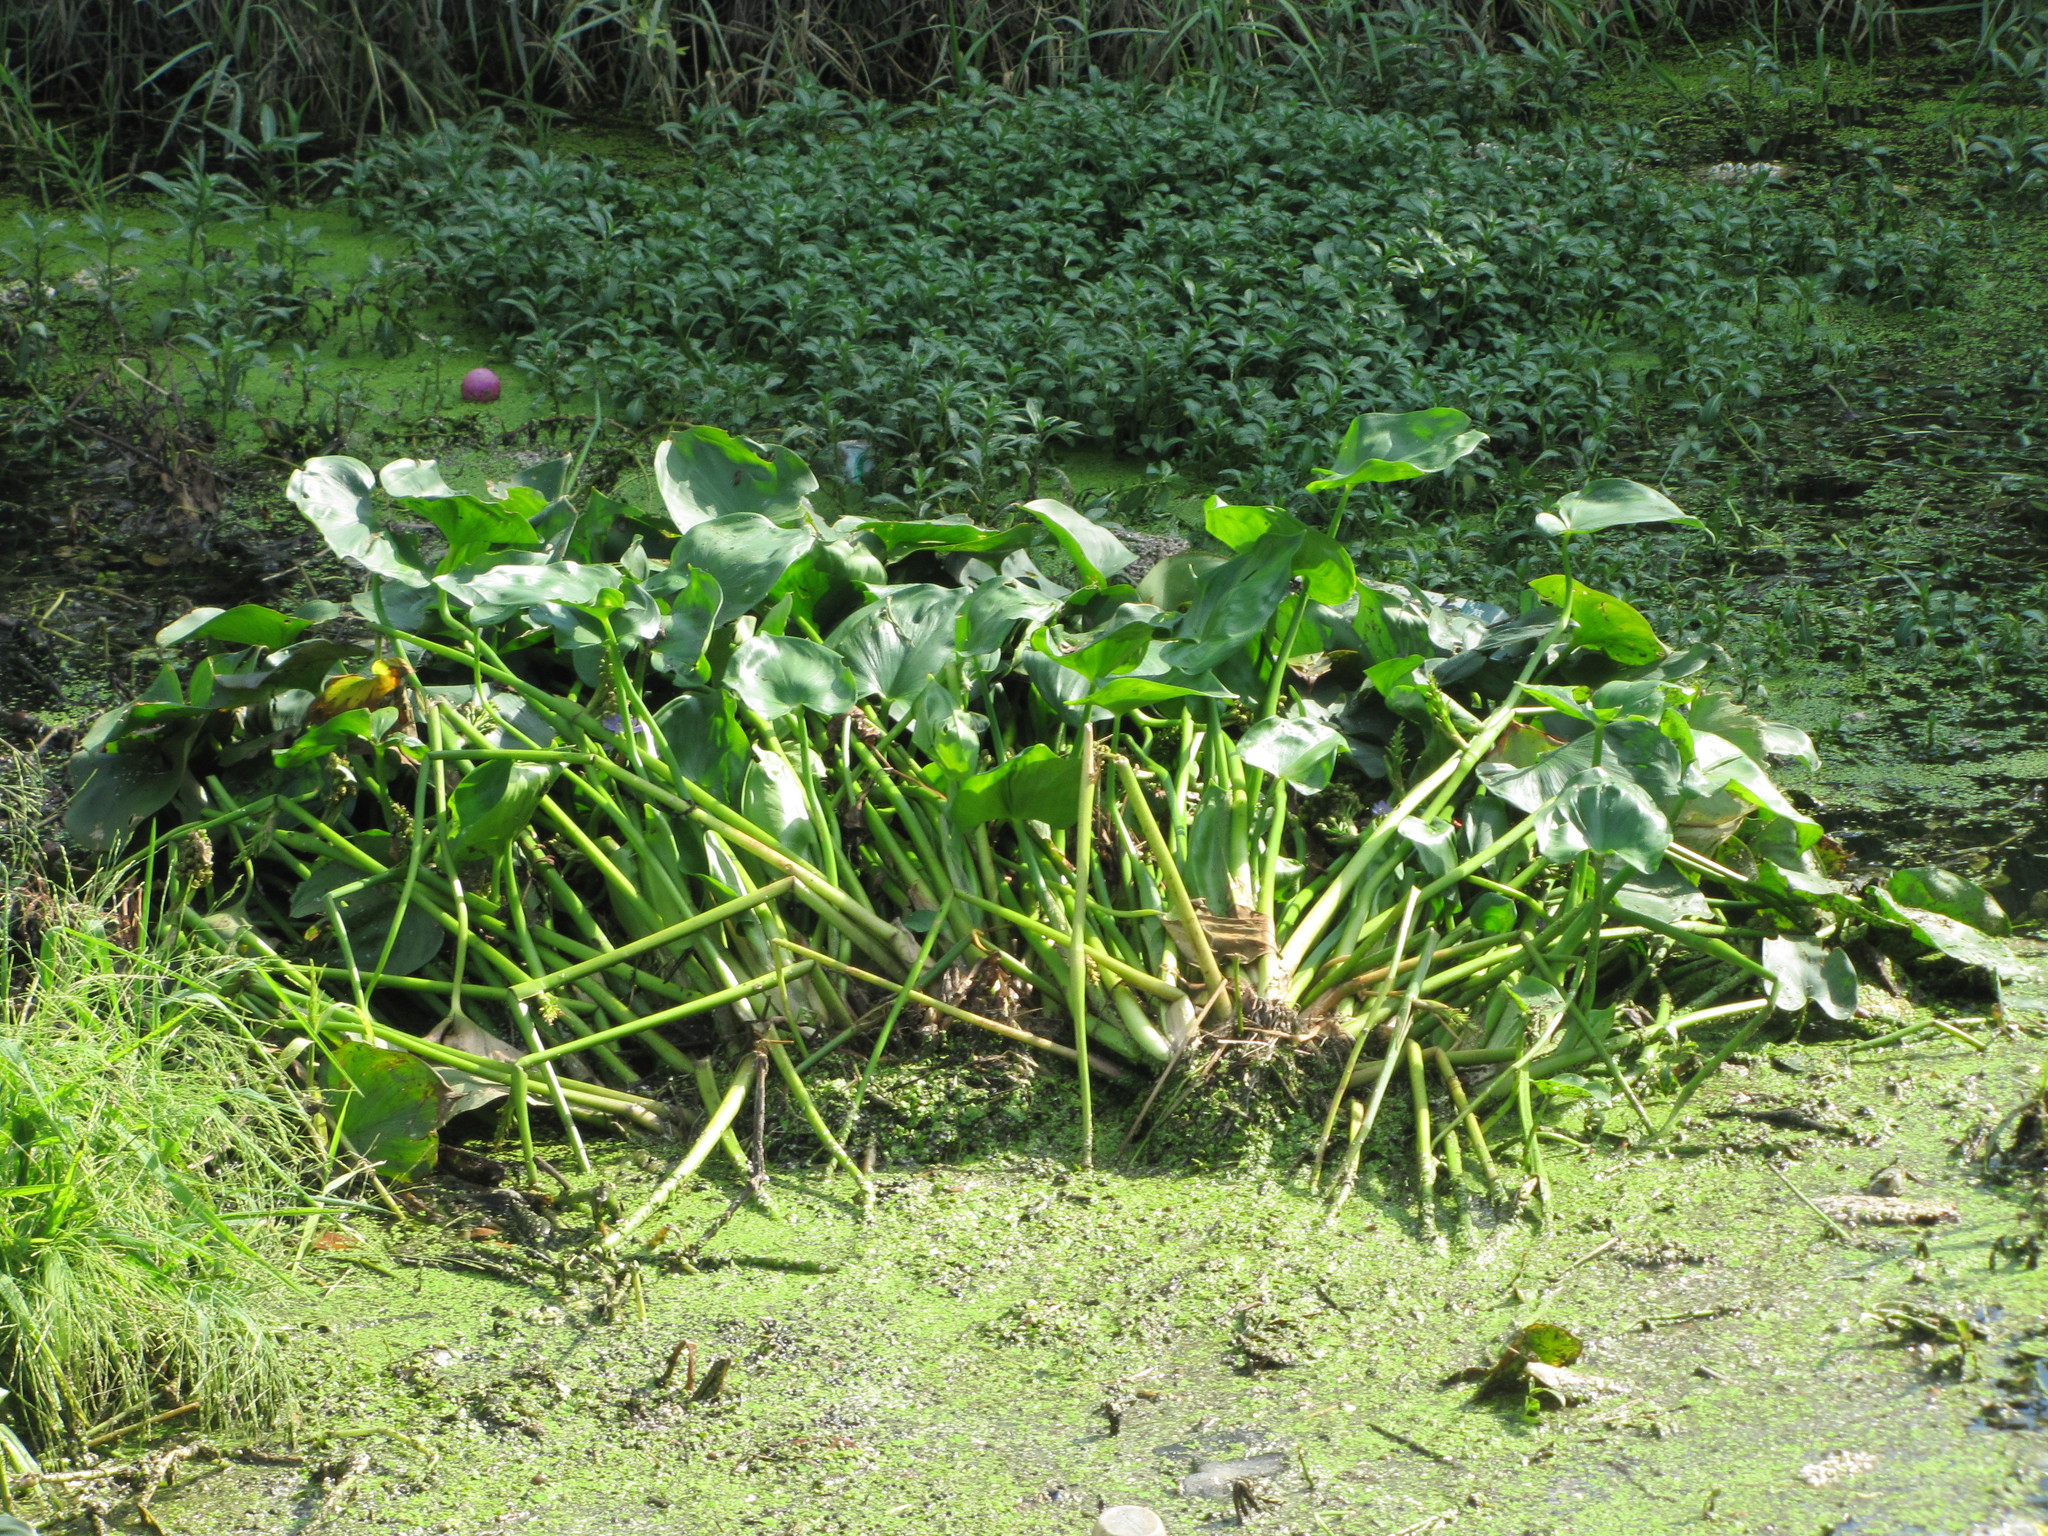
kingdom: Plantae
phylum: Tracheophyta
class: Liliopsida
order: Commelinales
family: Pontederiaceae
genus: Pontederia
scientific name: Pontederia vaginalis
